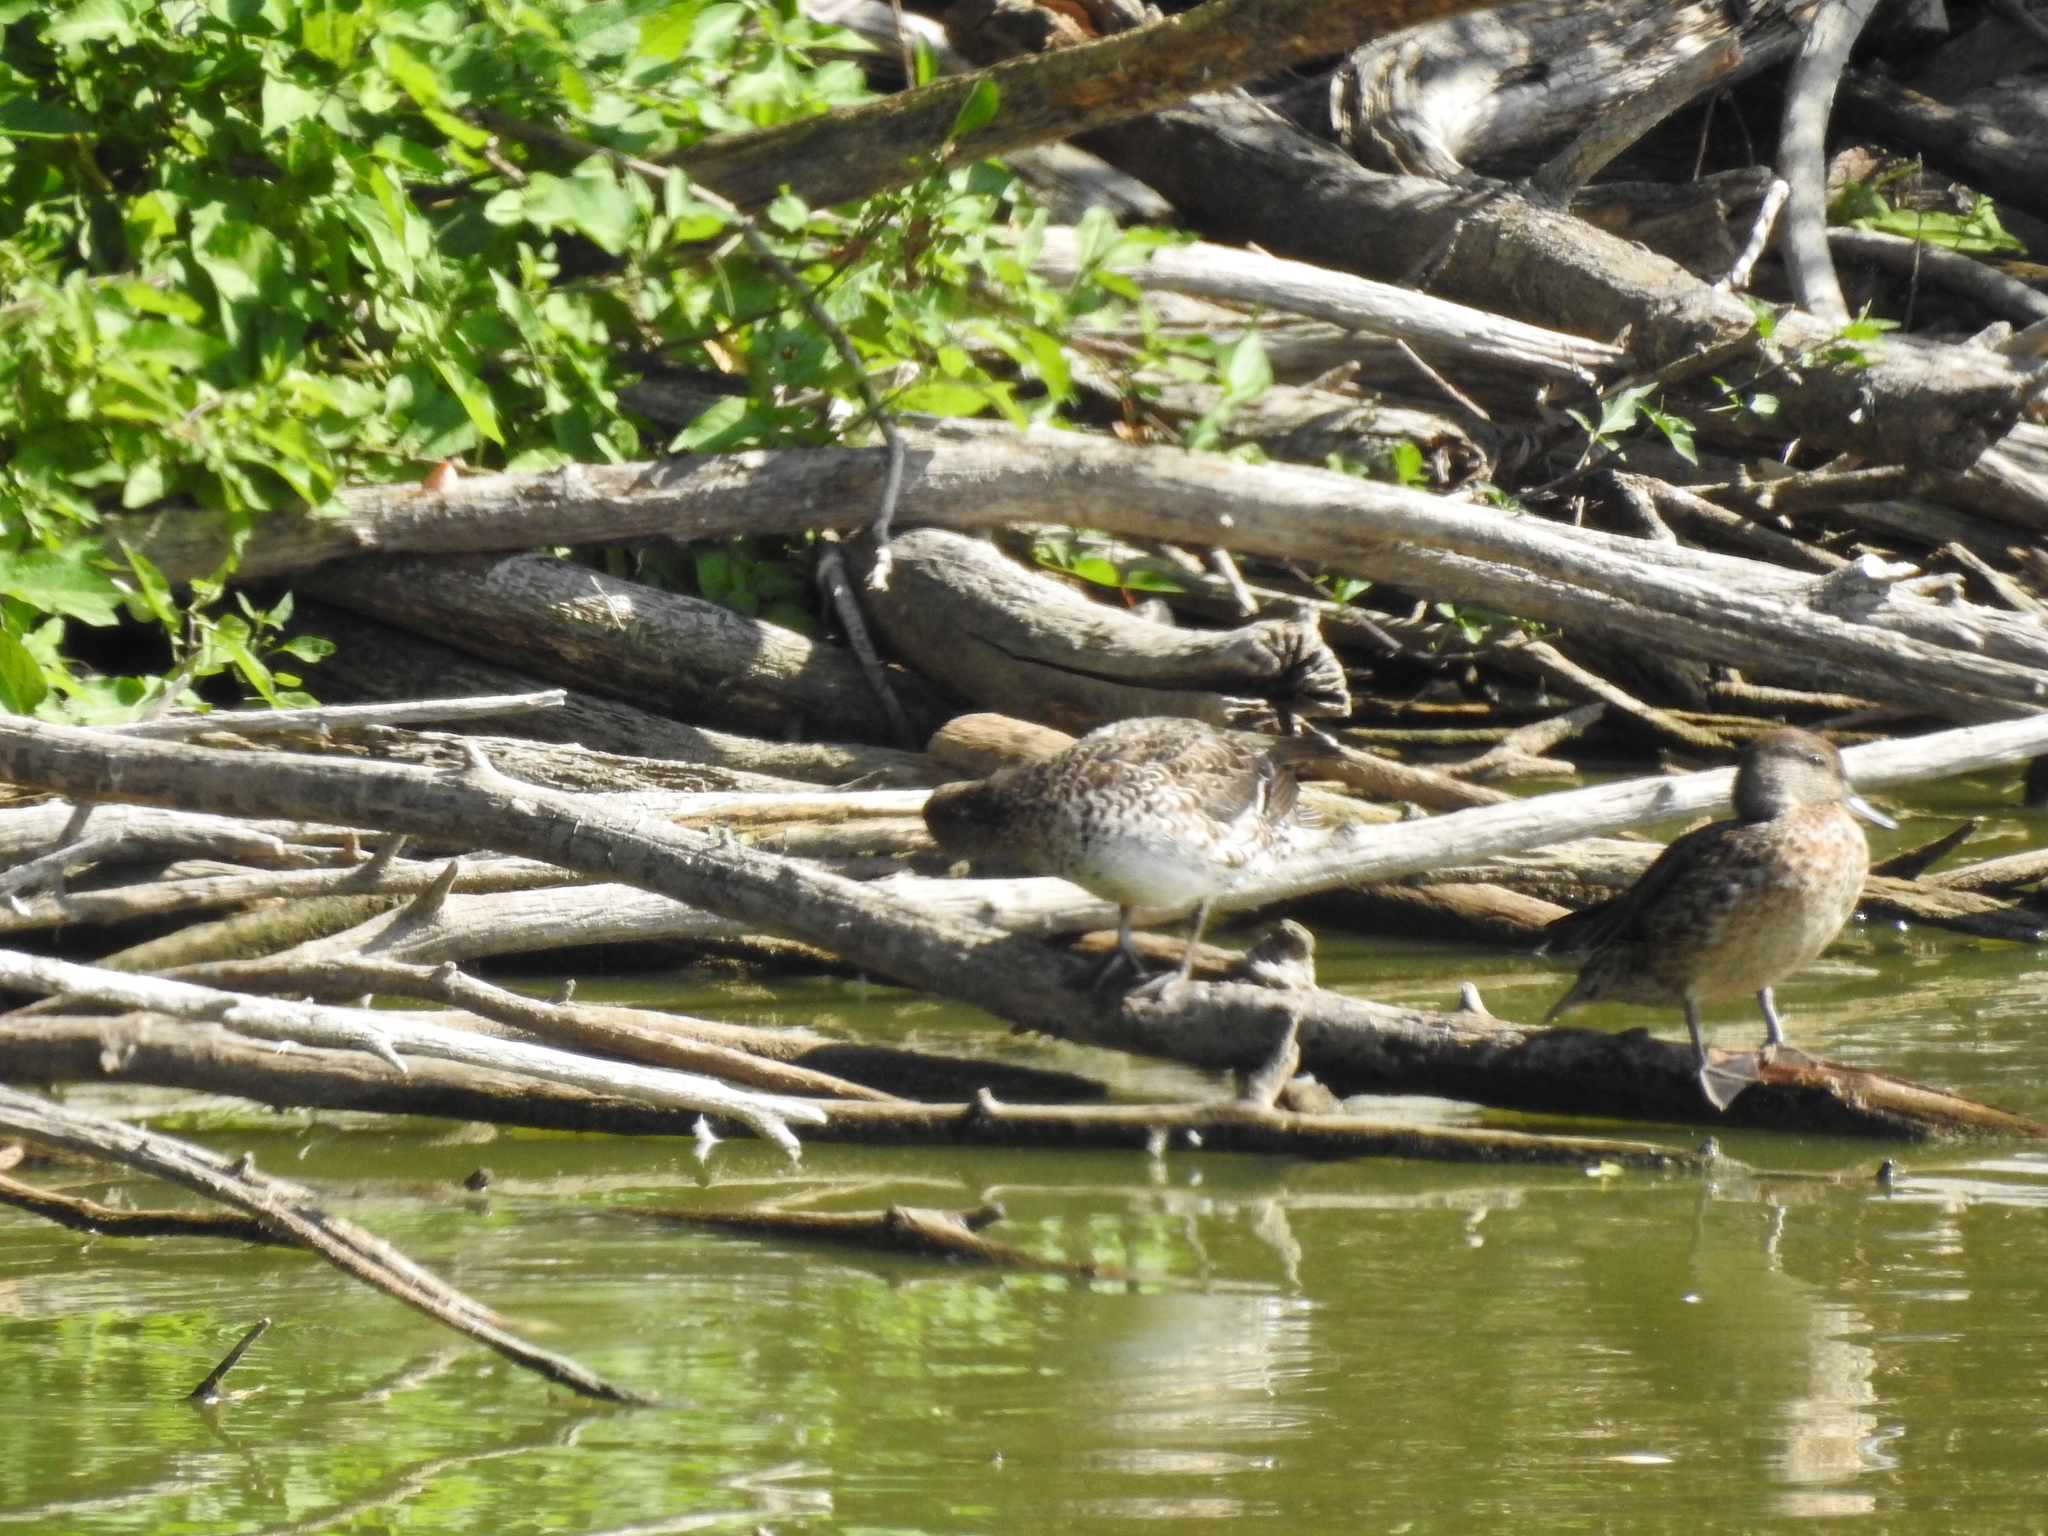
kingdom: Animalia
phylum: Chordata
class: Aves
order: Anseriformes
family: Anatidae
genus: Anas
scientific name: Anas crecca
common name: Eurasian teal
